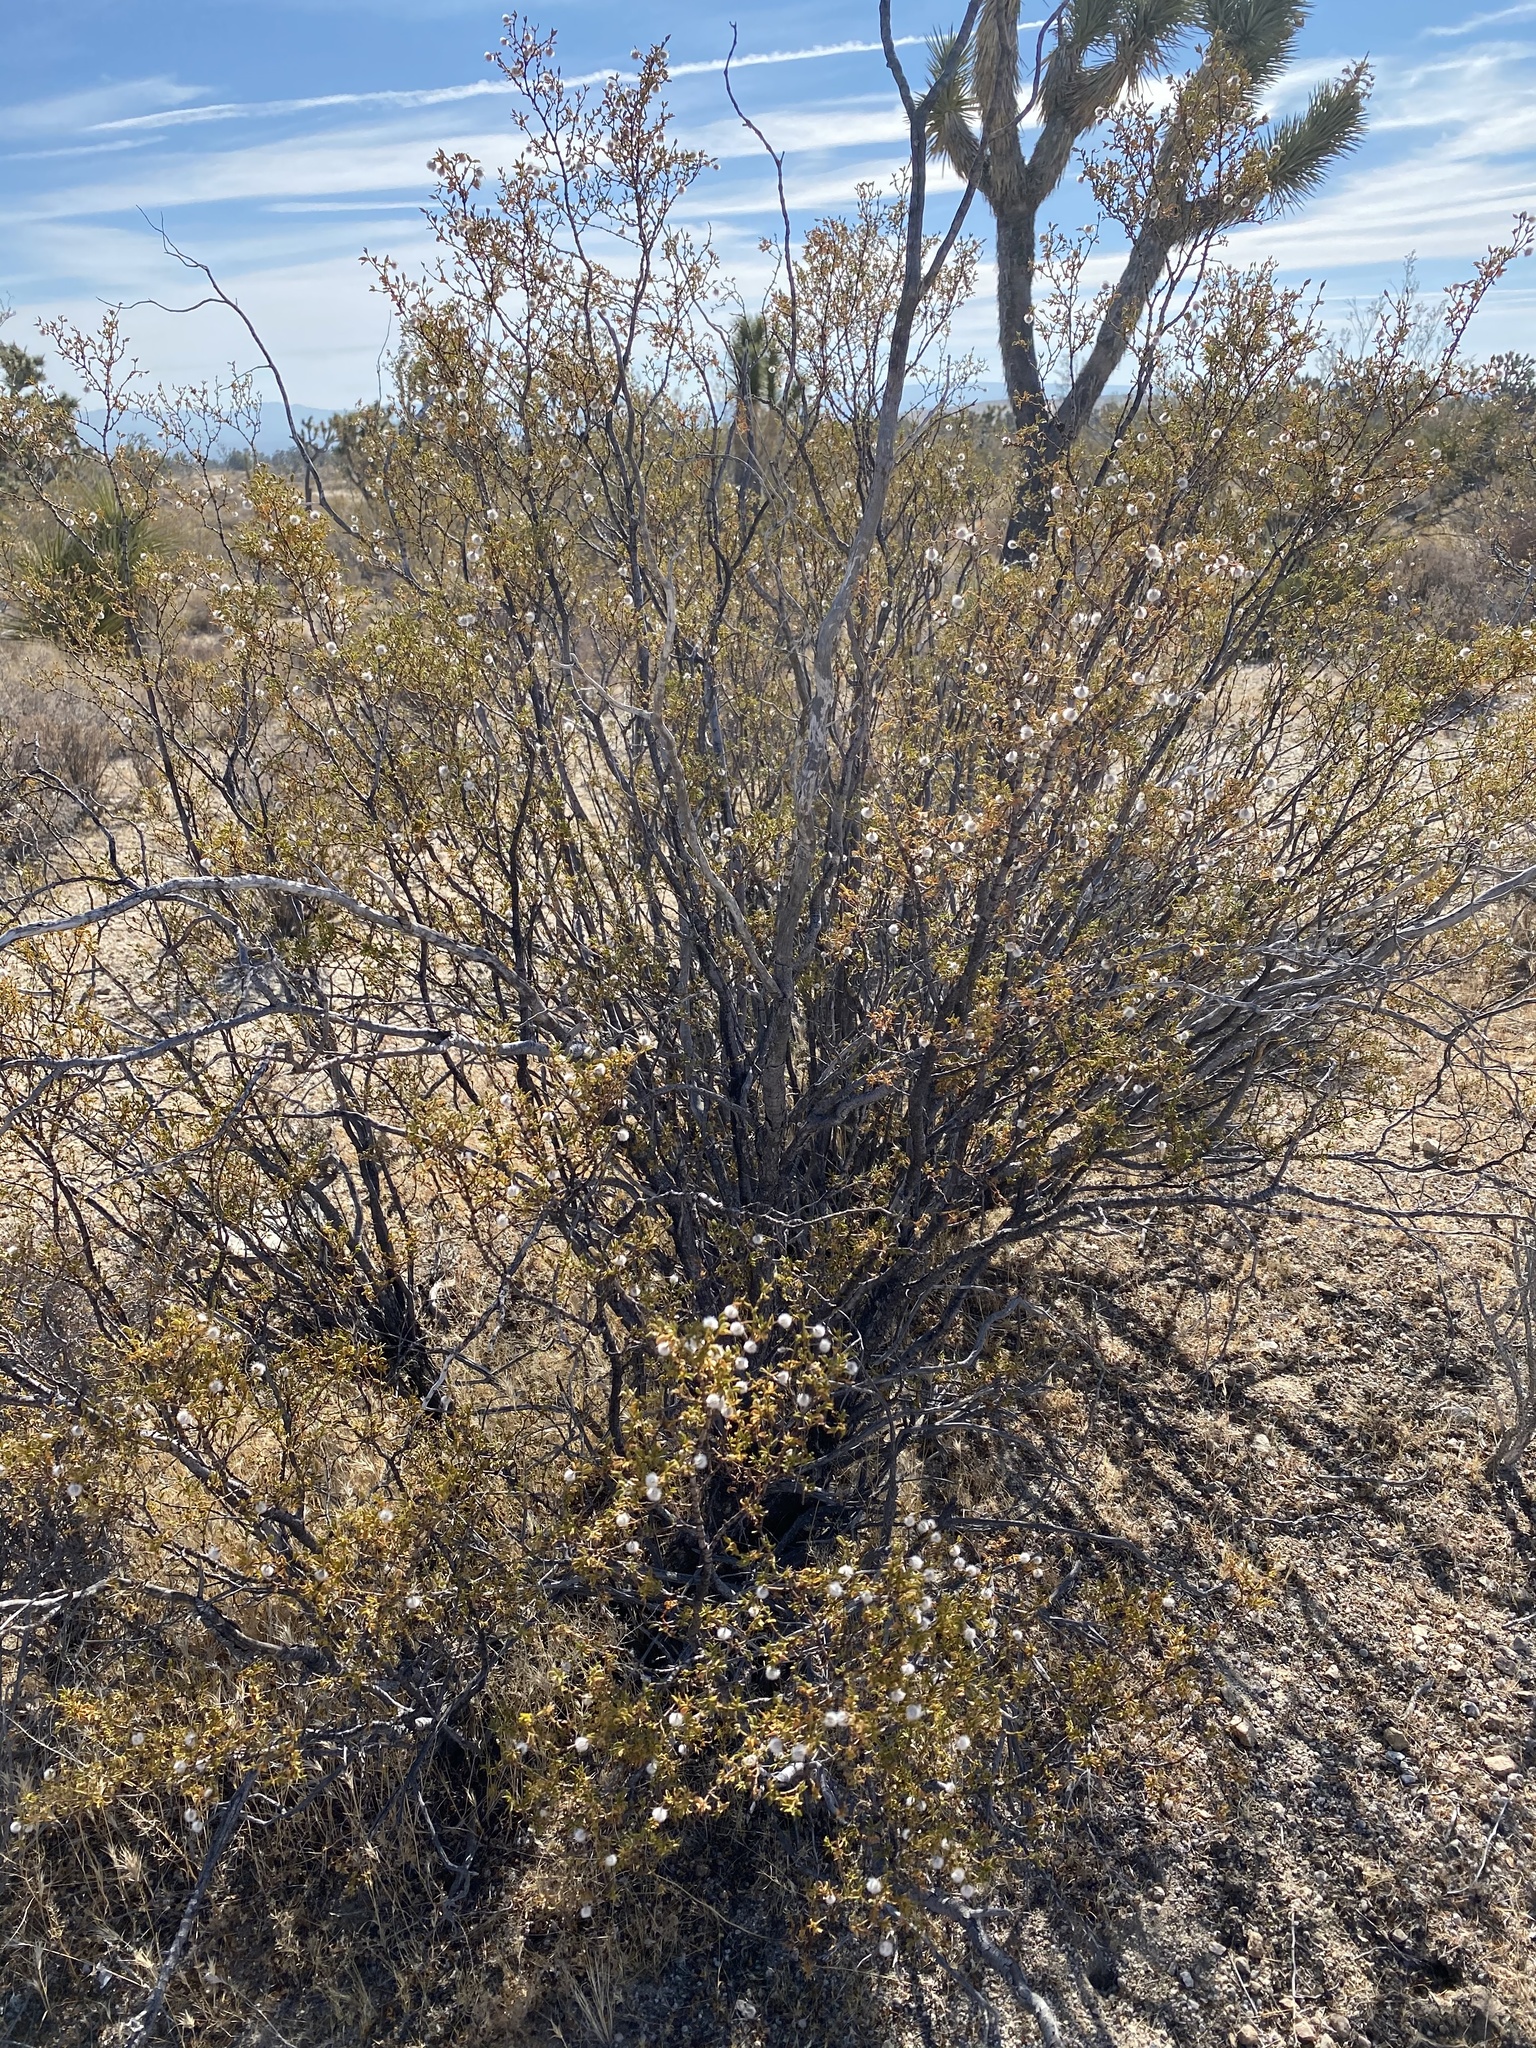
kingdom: Plantae
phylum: Tracheophyta
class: Magnoliopsida
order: Zygophyllales
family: Zygophyllaceae
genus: Larrea
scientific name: Larrea tridentata
